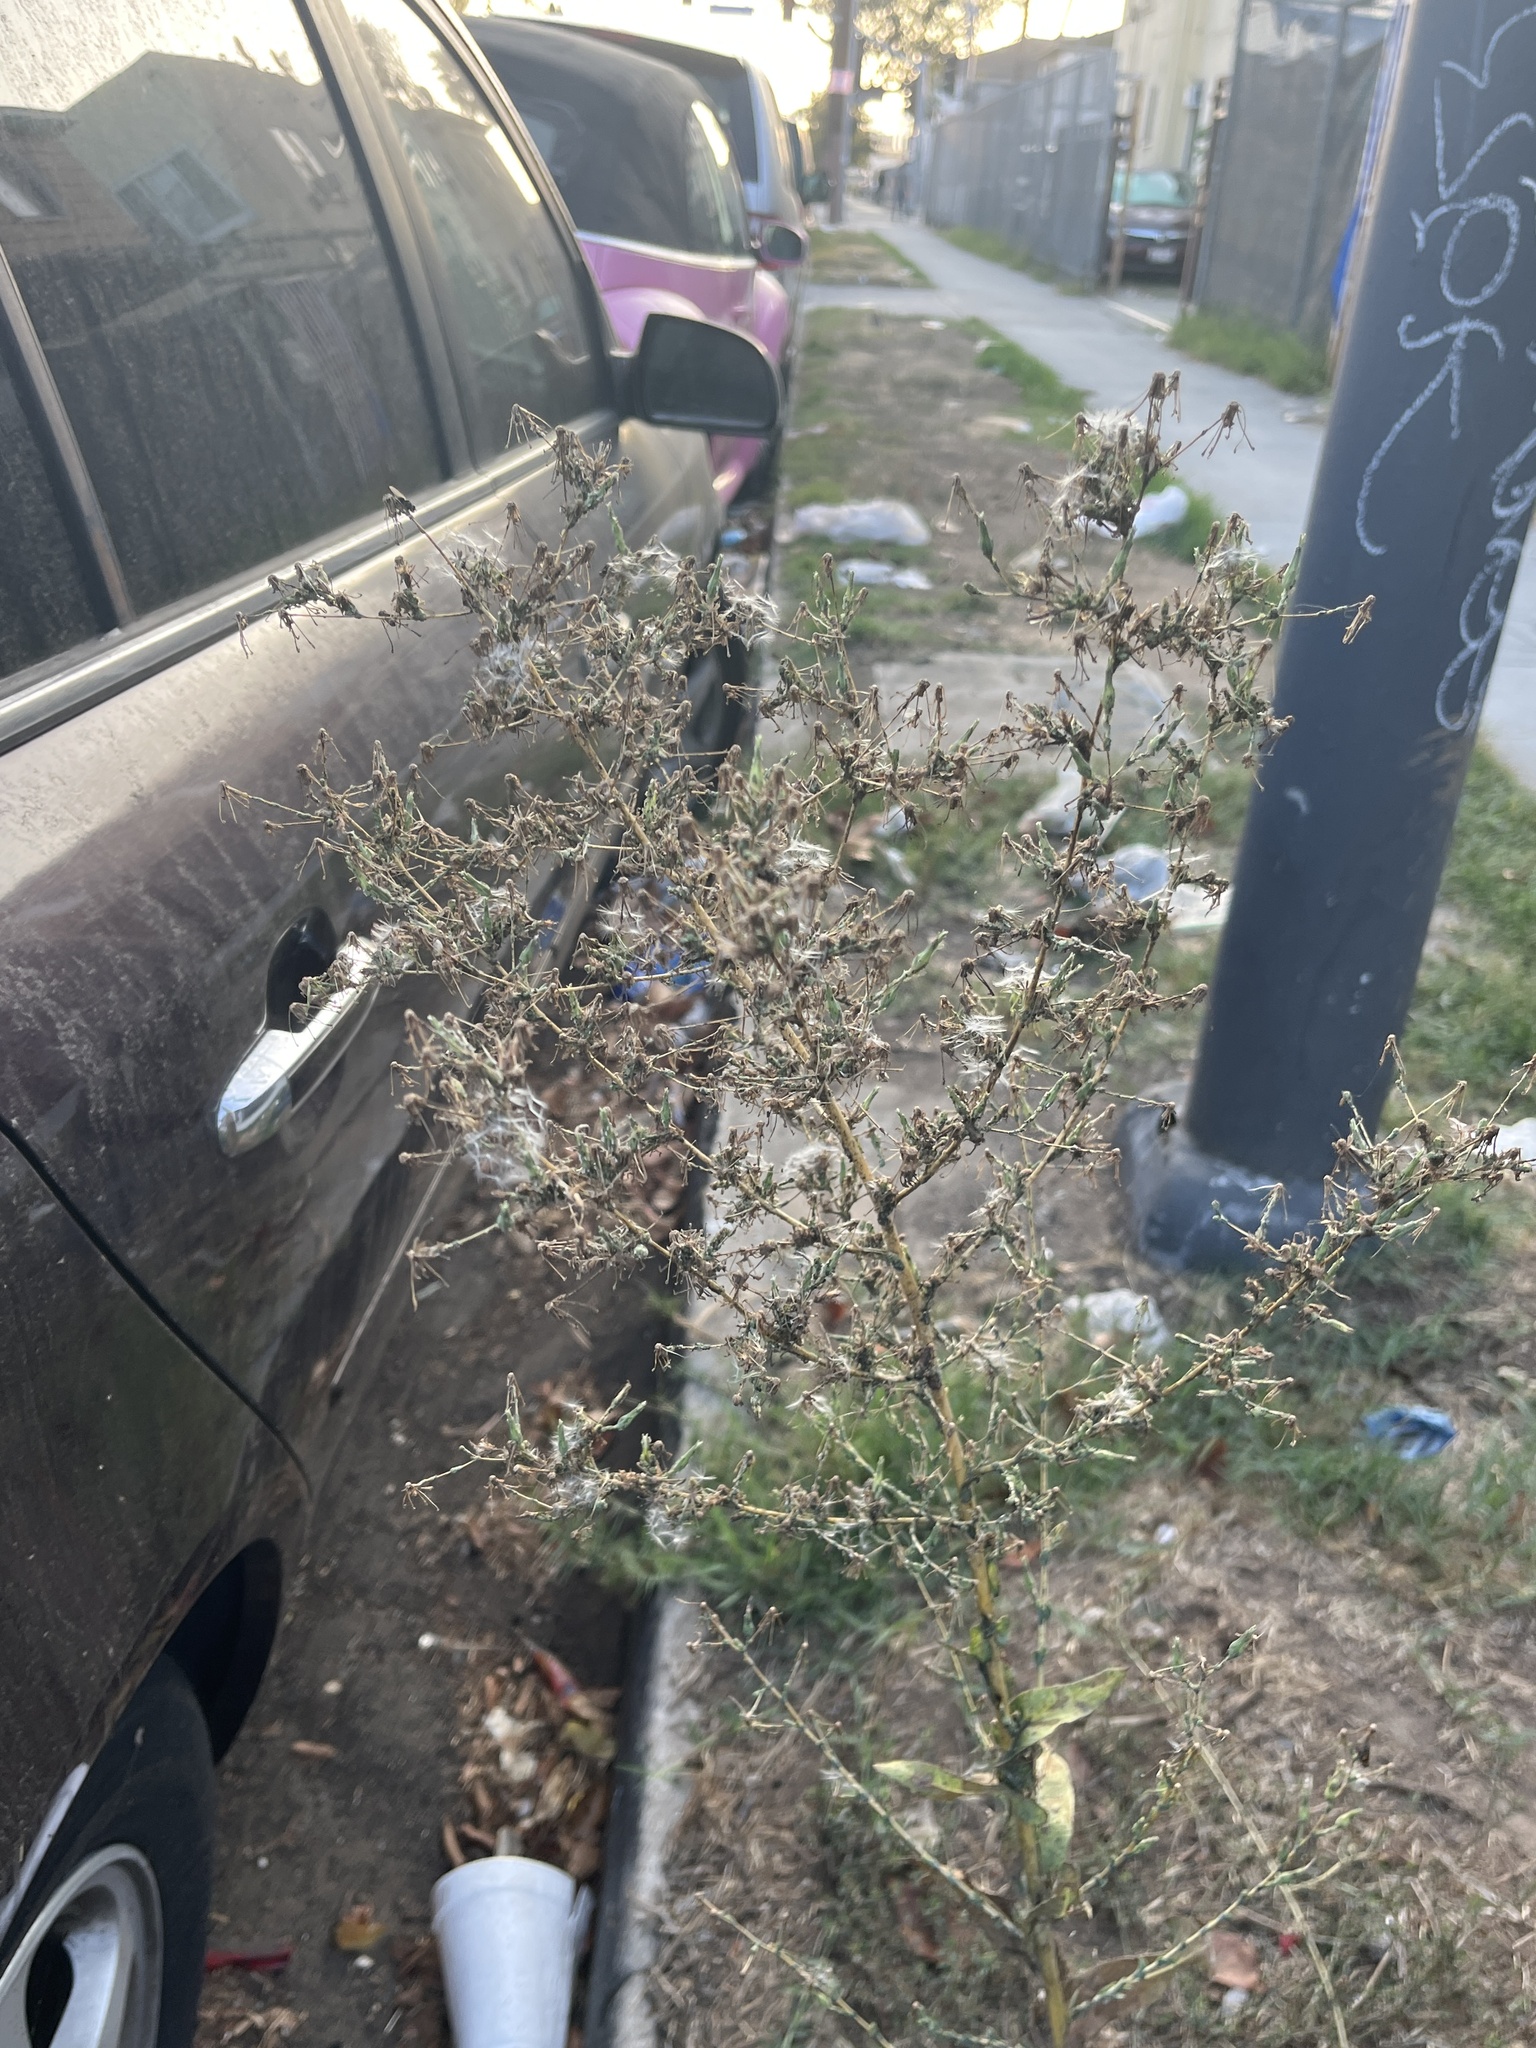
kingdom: Plantae
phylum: Tracheophyta
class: Magnoliopsida
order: Asterales
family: Asteraceae
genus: Erigeron
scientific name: Erigeron canadensis
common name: Canadian fleabane
